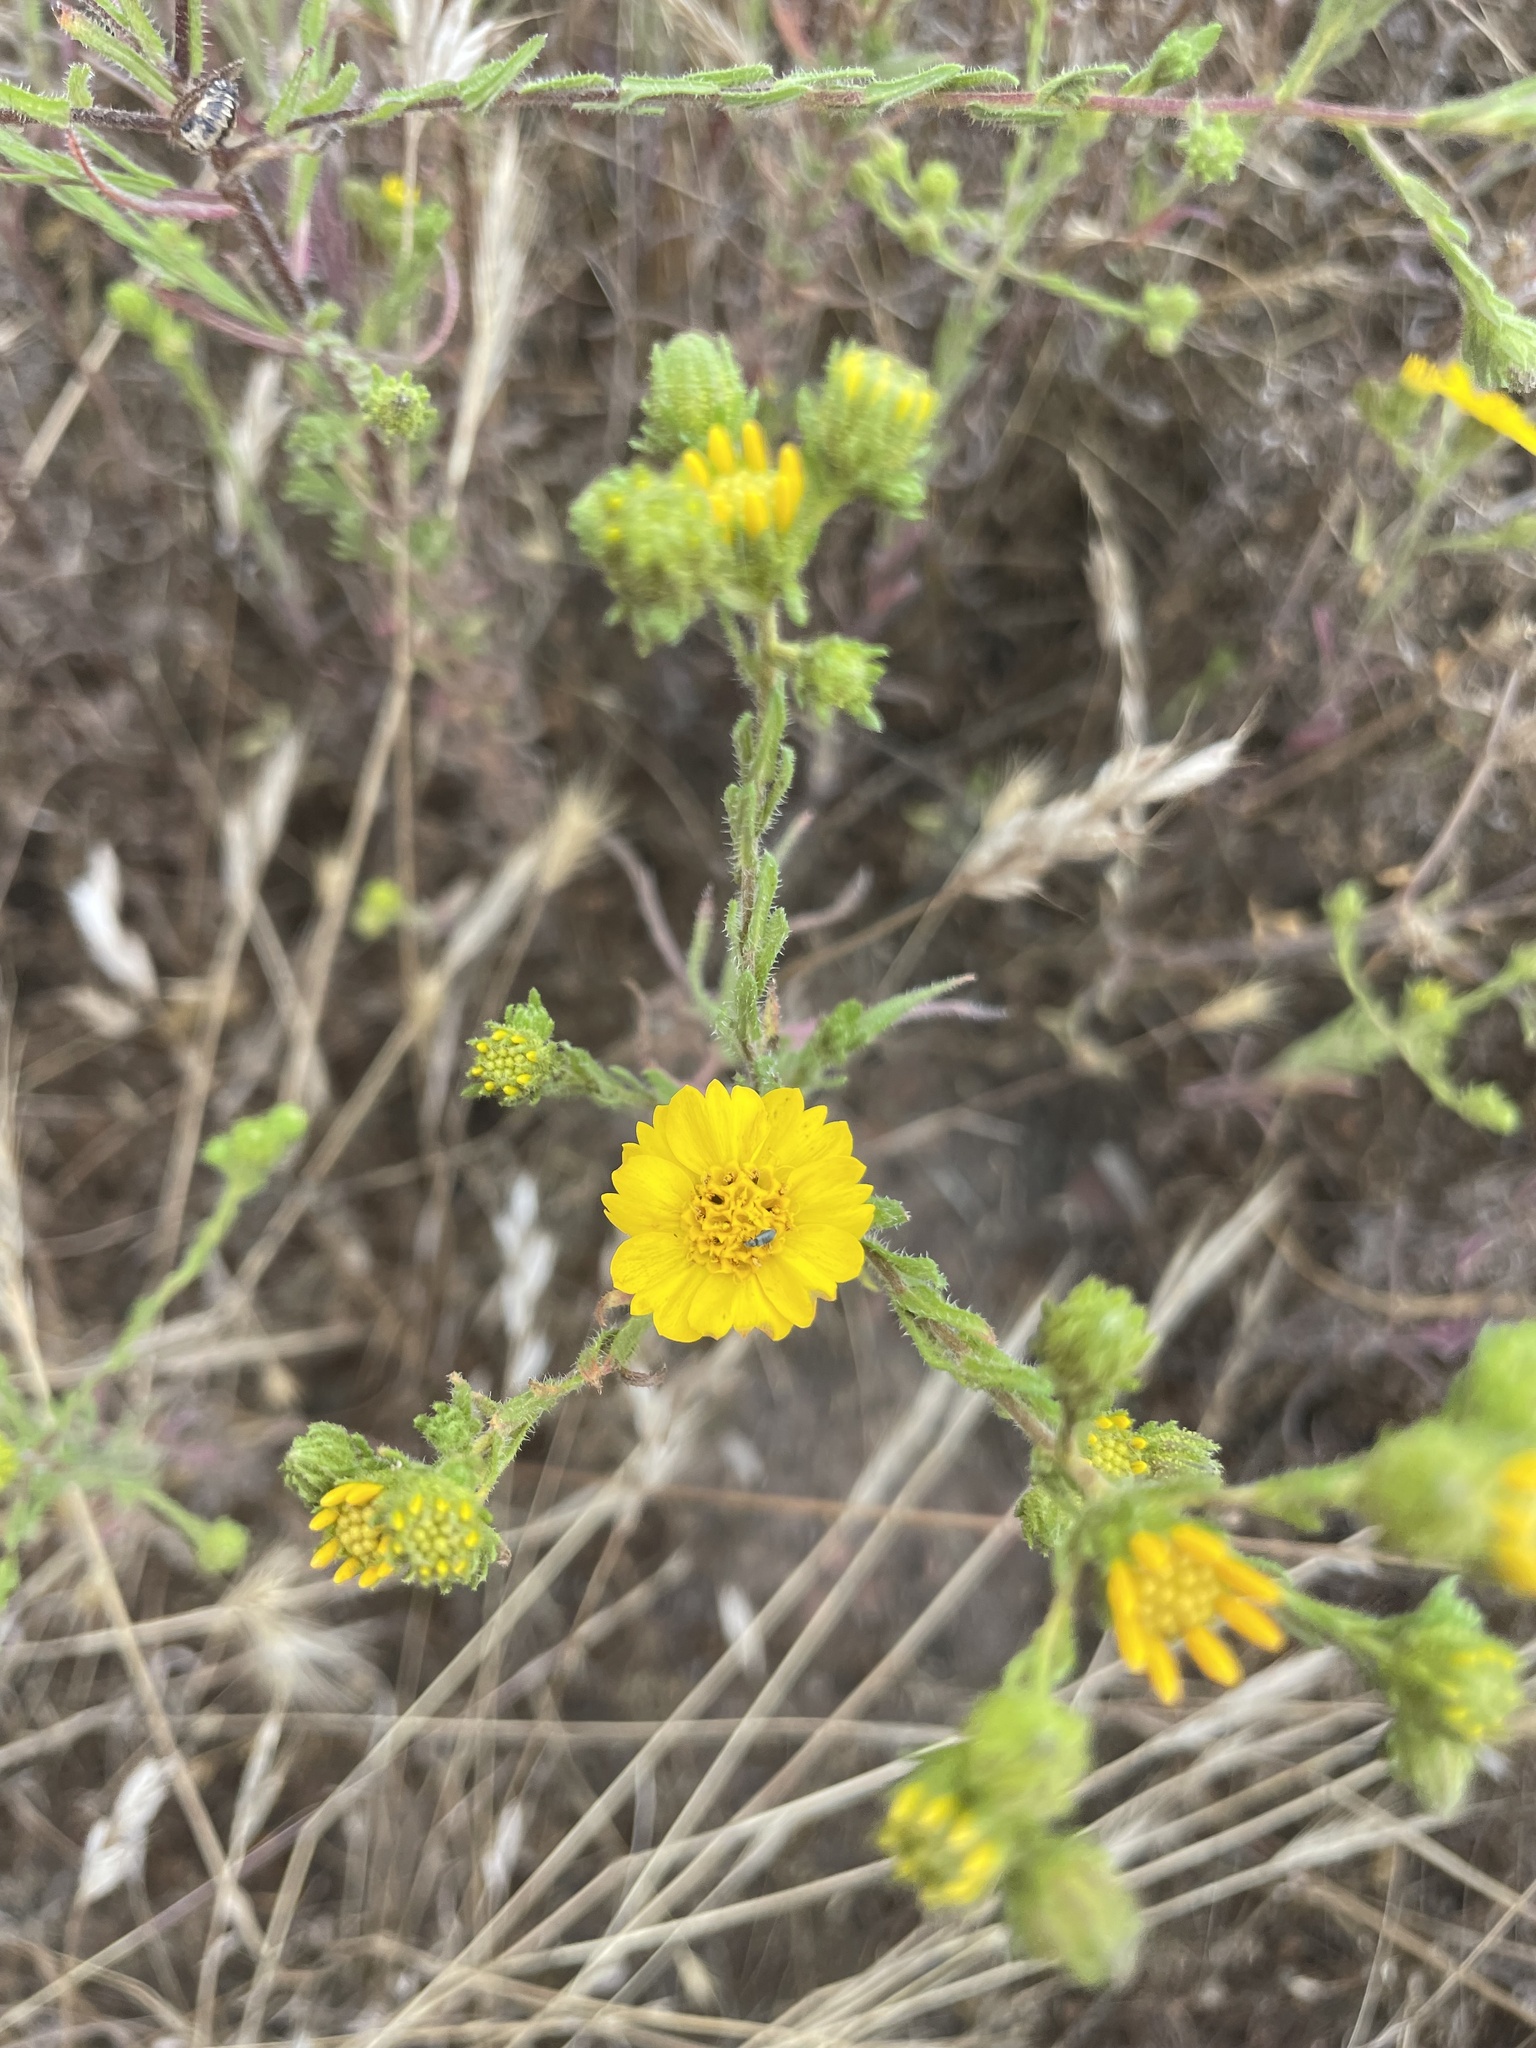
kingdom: Plantae
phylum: Tracheophyta
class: Magnoliopsida
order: Asterales
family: Asteraceae
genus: Deinandra
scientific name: Deinandra conjugens
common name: Otay tarplant
